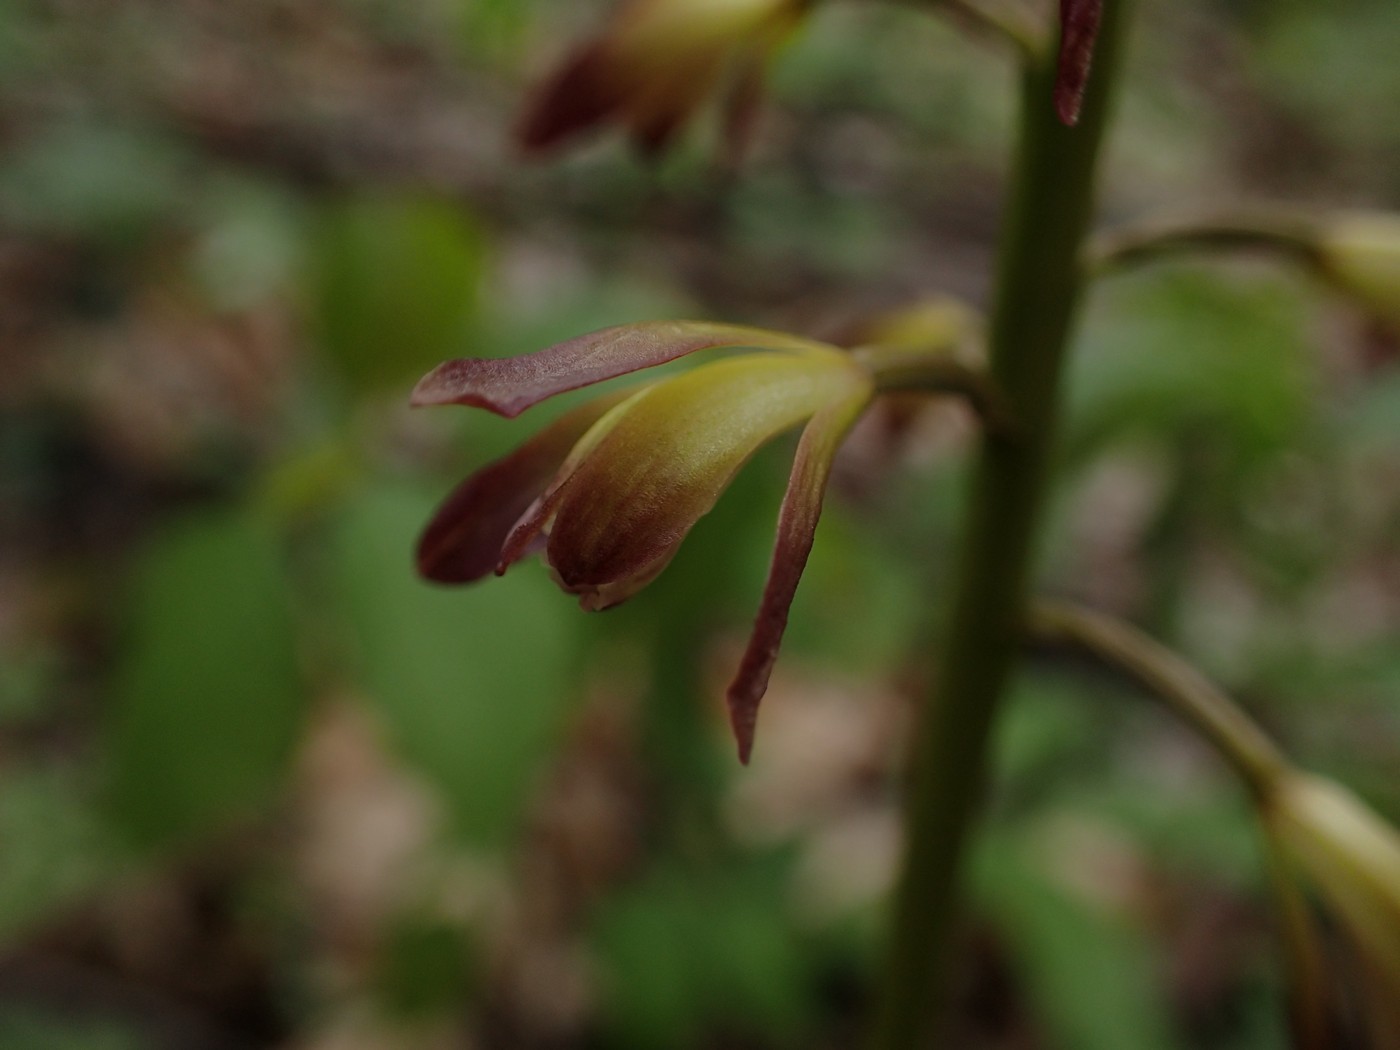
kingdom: Plantae
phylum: Tracheophyta
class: Liliopsida
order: Asparagales
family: Orchidaceae
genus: Aplectrum
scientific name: Aplectrum hyemale
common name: Adam-and-eve
